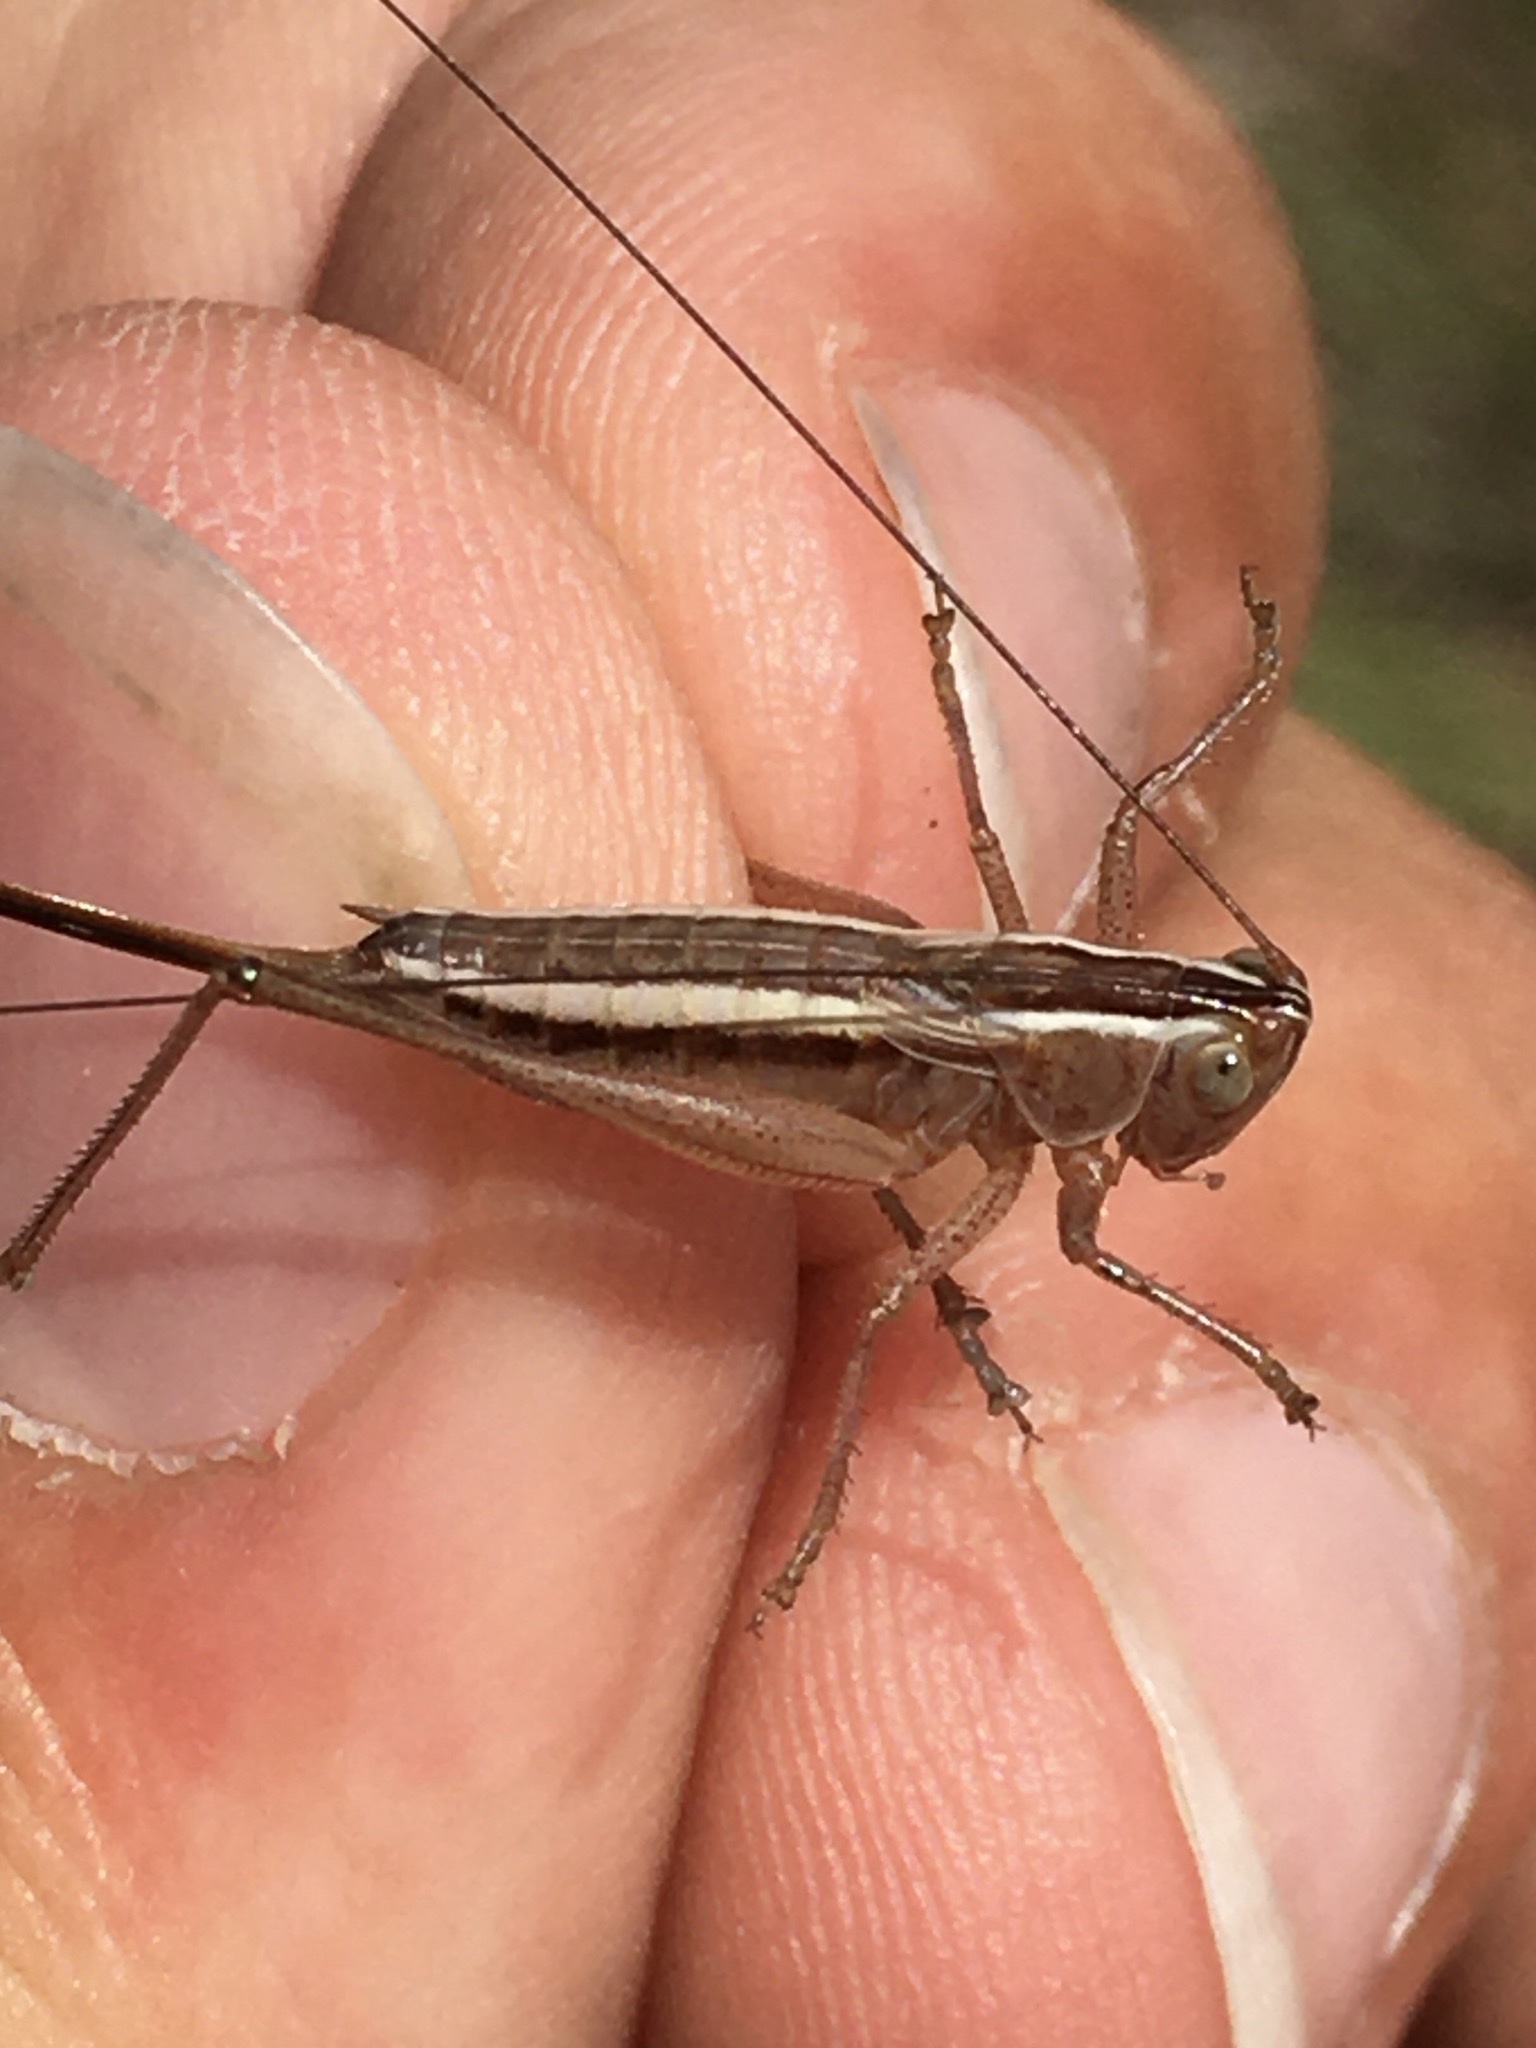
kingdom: Animalia
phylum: Arthropoda
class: Insecta
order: Orthoptera
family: Tettigoniidae
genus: Conocephalus
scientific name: Conocephalus saltans
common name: Prairie meadow katydid
